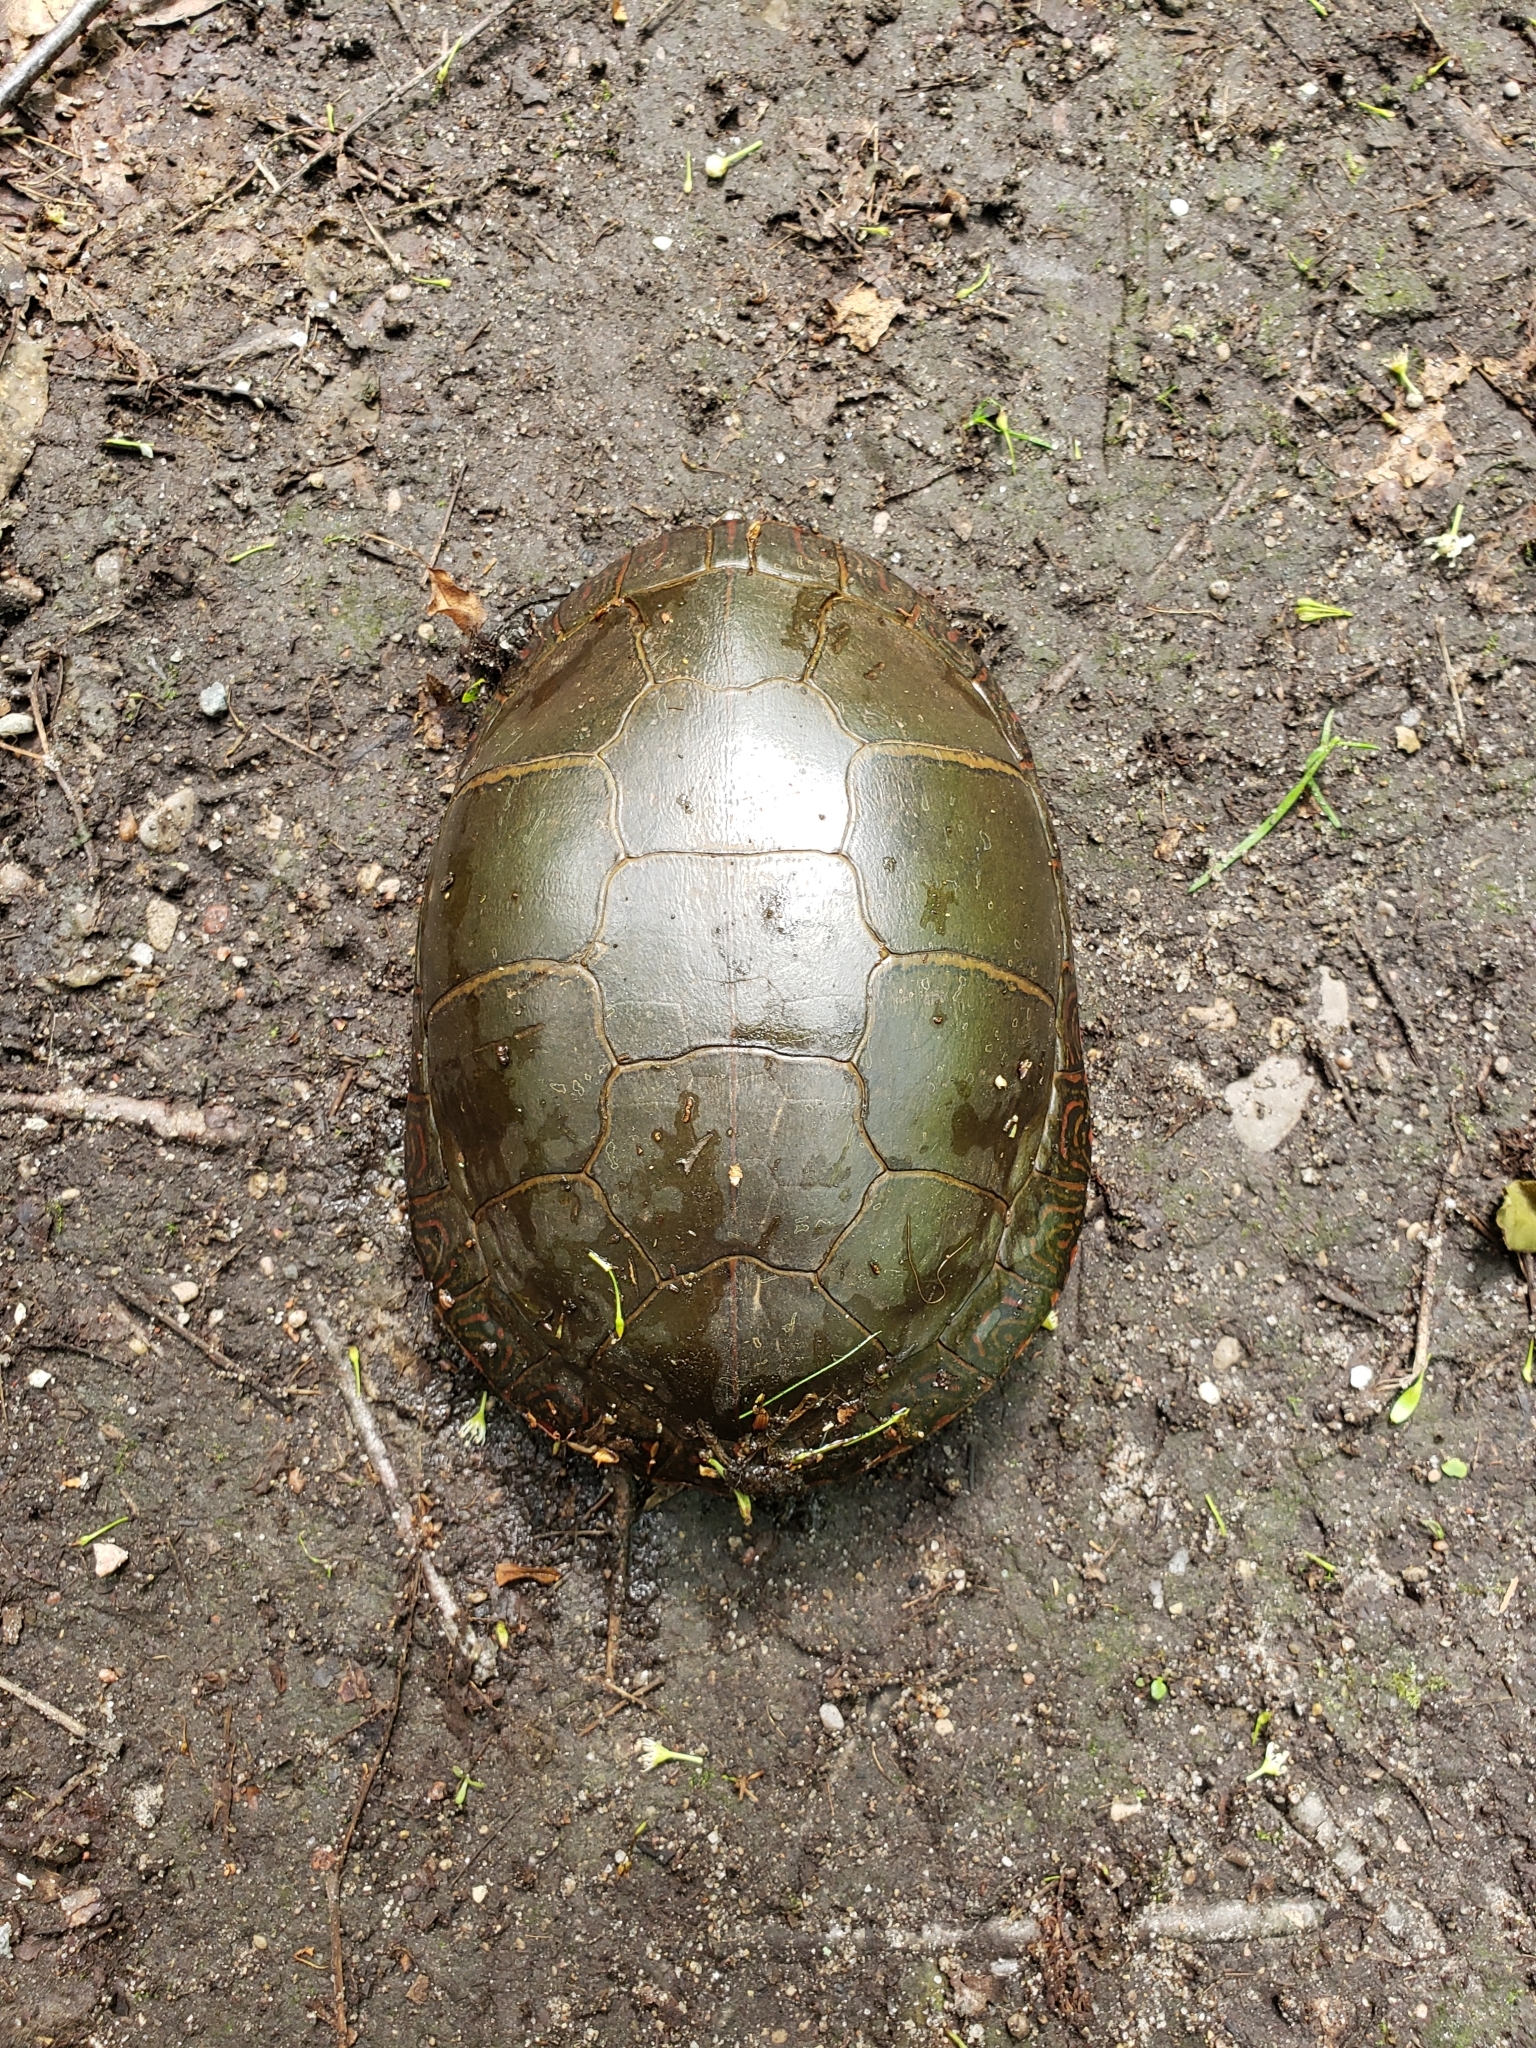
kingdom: Animalia
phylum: Chordata
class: Testudines
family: Emydidae
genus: Chrysemys
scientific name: Chrysemys picta
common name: Painted turtle
